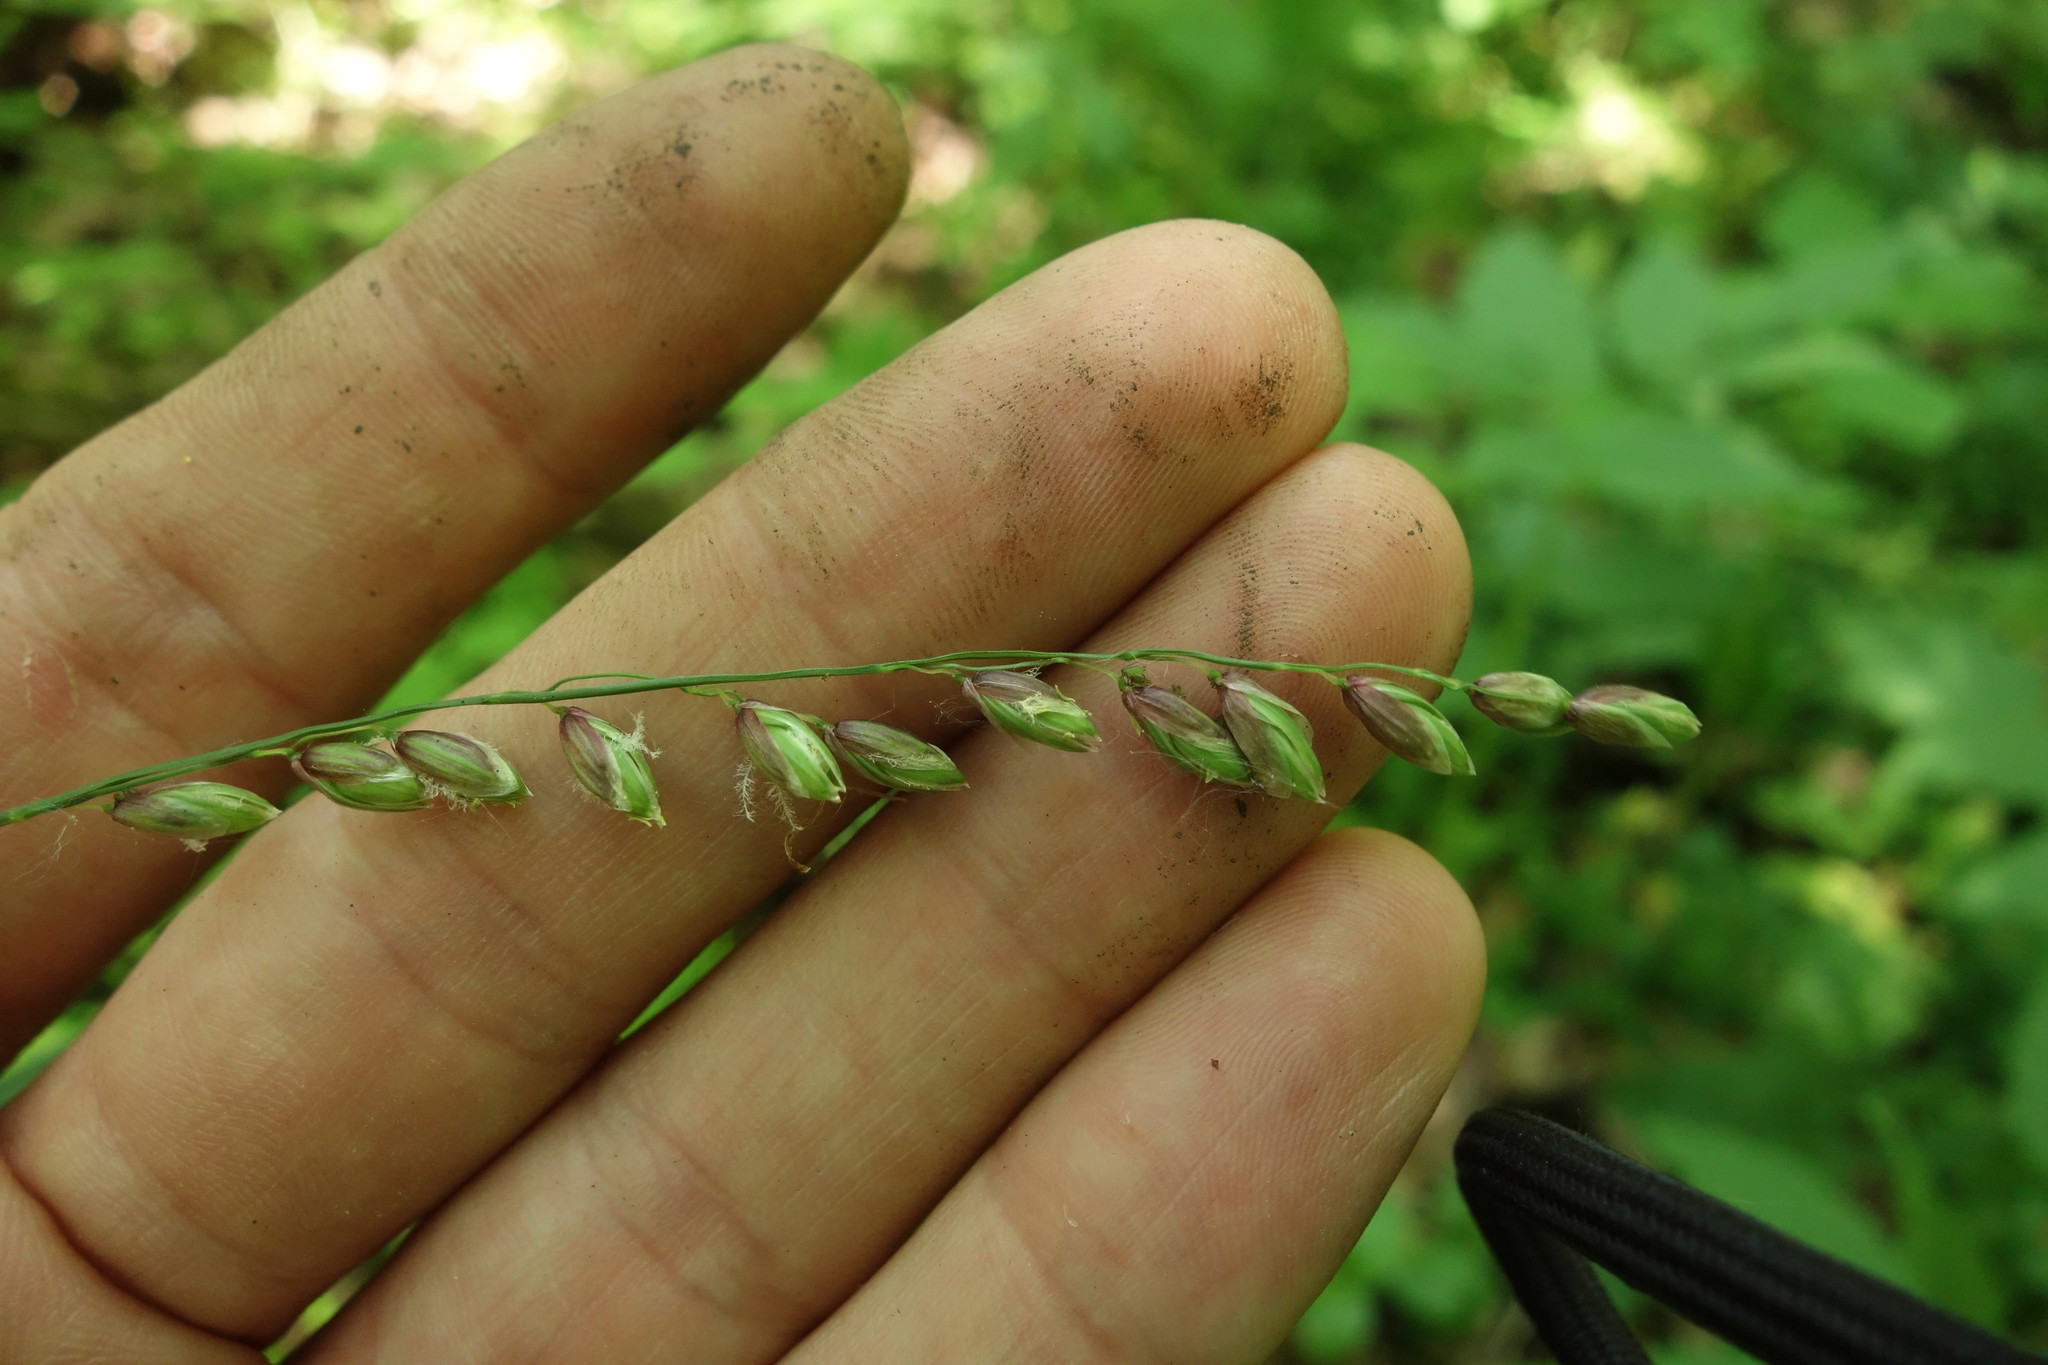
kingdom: Plantae
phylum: Tracheophyta
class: Liliopsida
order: Poales
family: Poaceae
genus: Melica
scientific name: Melica nutans
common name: Mountain melick
